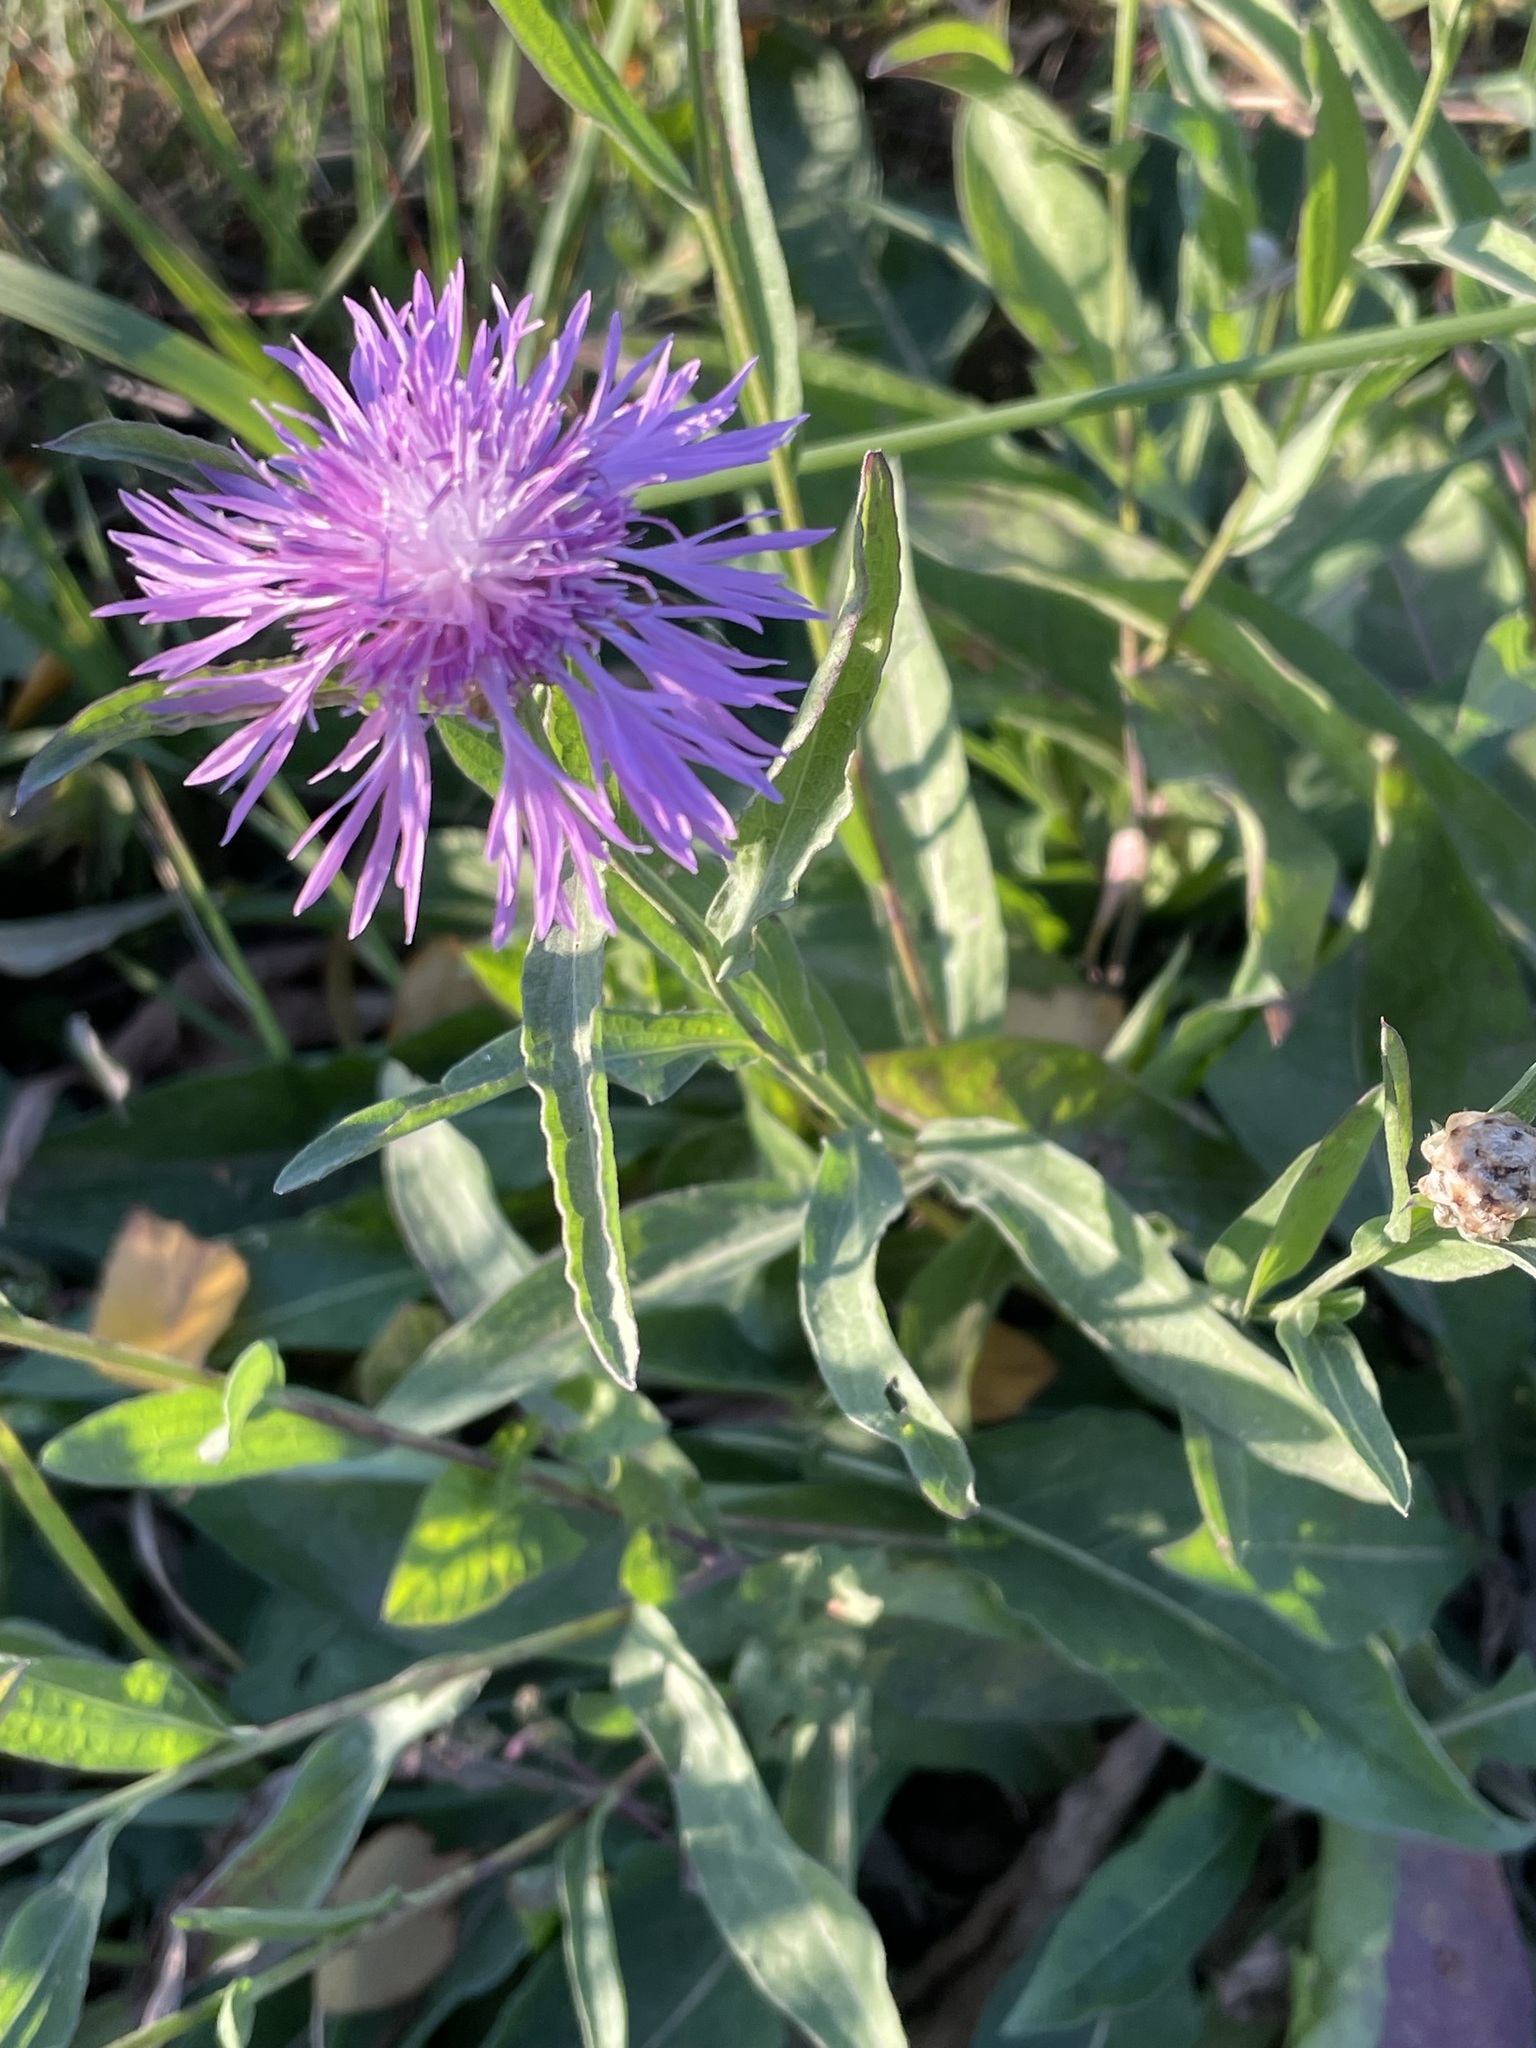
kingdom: Plantae
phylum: Tracheophyta
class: Magnoliopsida
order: Asterales
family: Asteraceae
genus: Centaurea
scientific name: Centaurea jacea
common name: Brown knapweed
